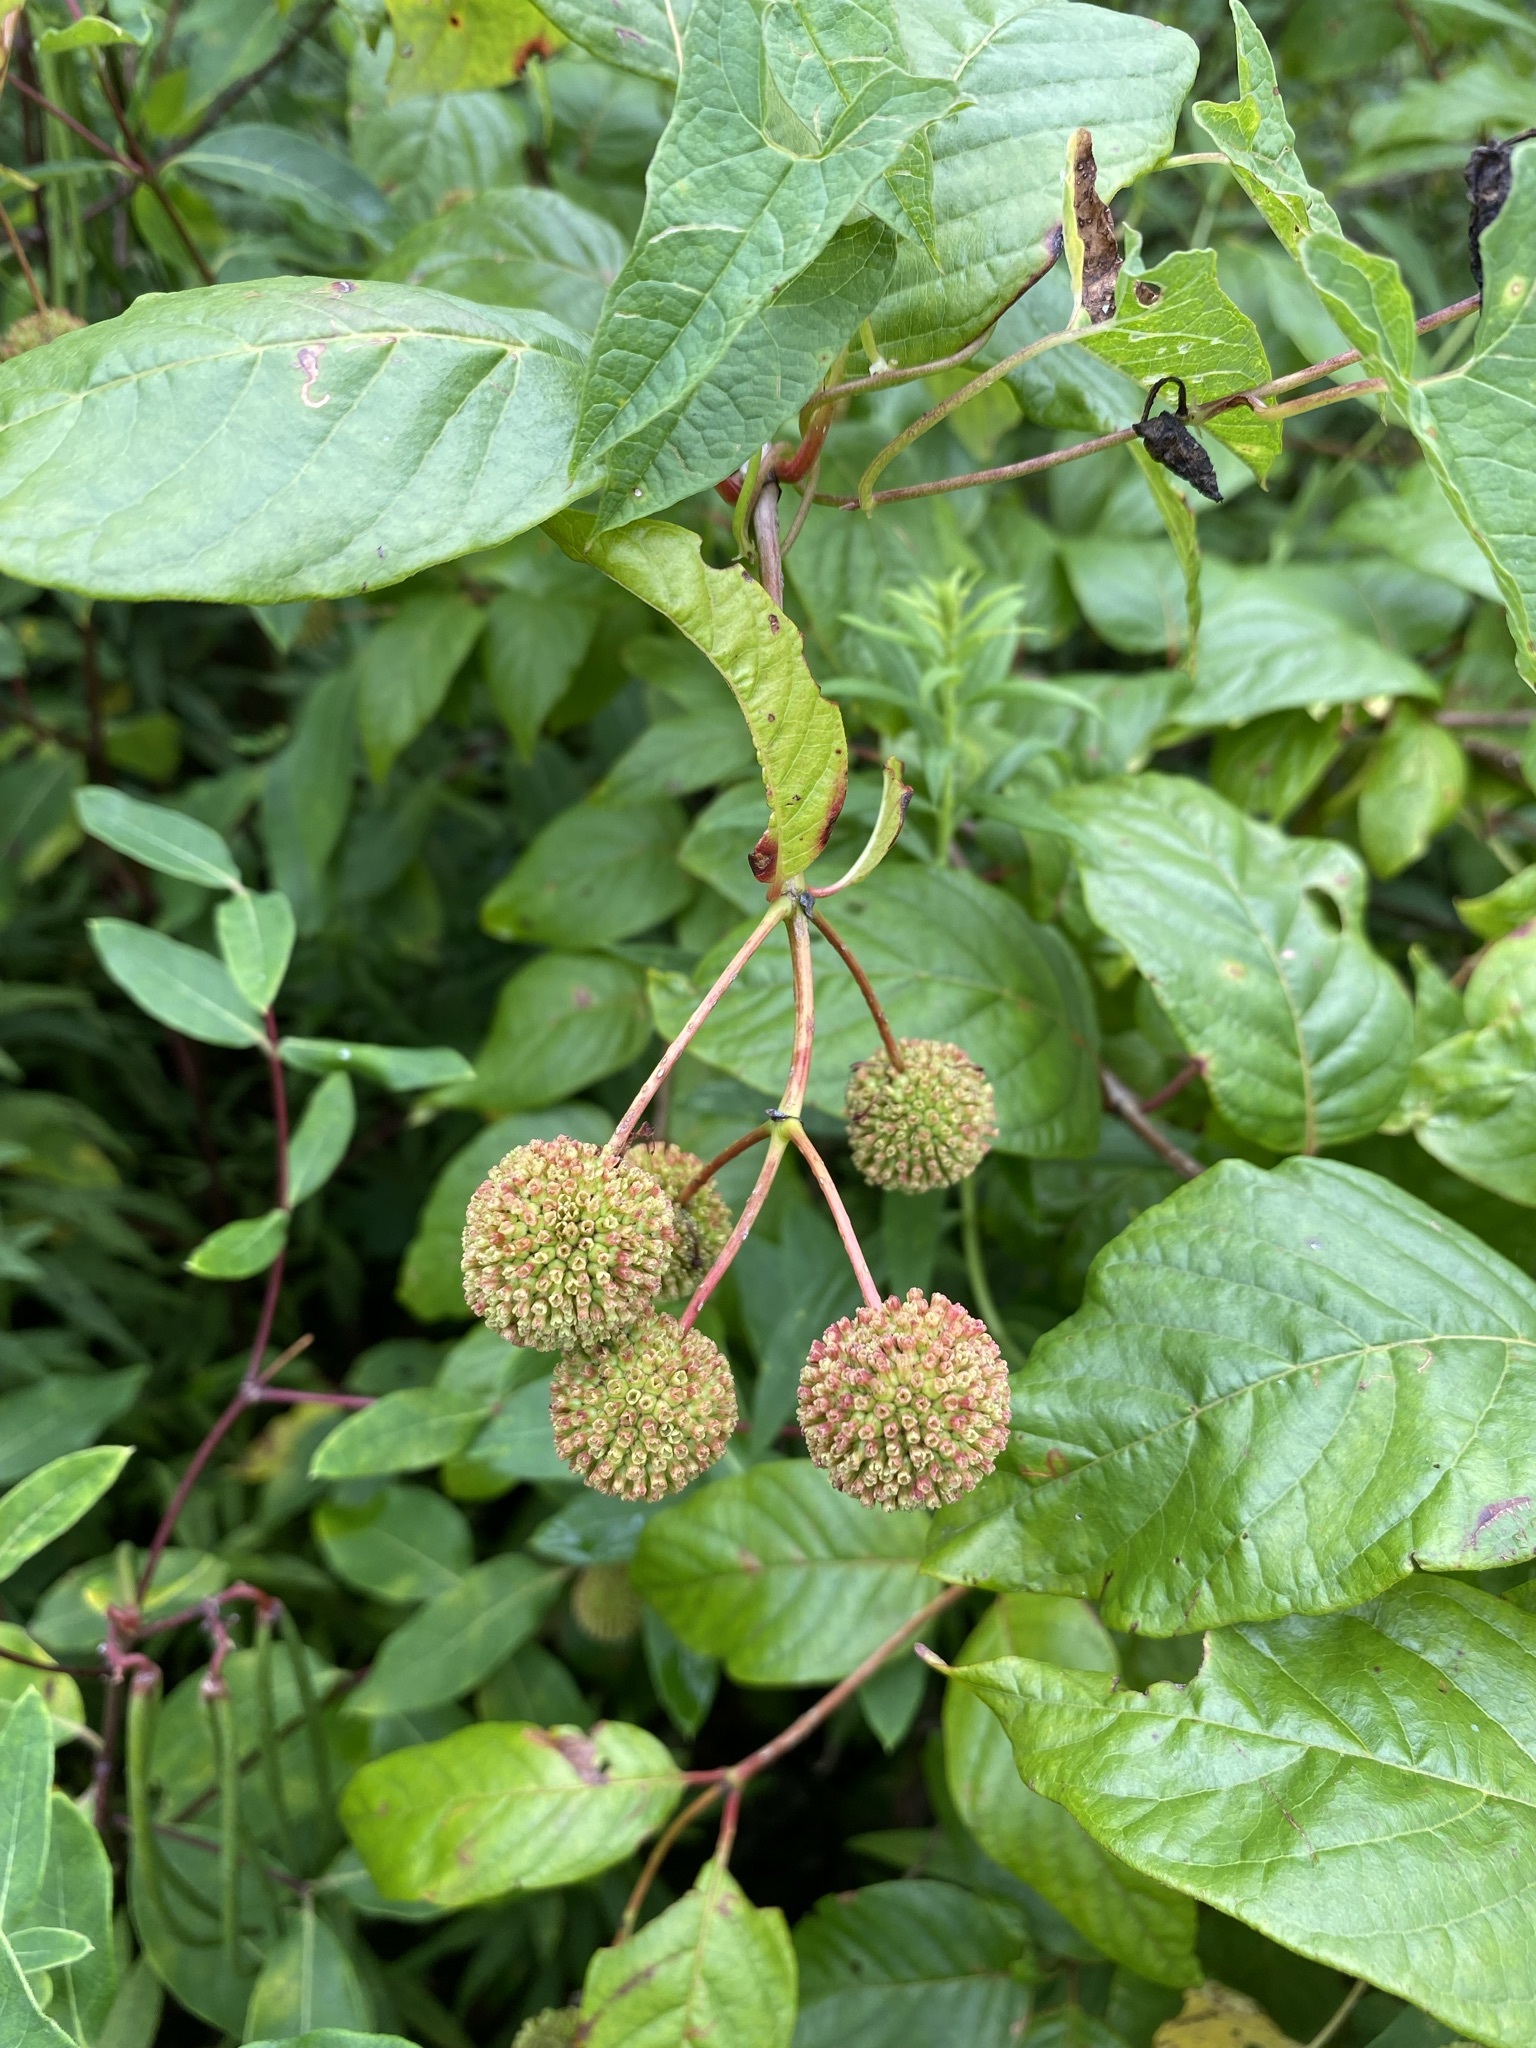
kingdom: Plantae
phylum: Tracheophyta
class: Magnoliopsida
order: Gentianales
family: Rubiaceae
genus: Cephalanthus
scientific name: Cephalanthus occidentalis
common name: Button-willow
